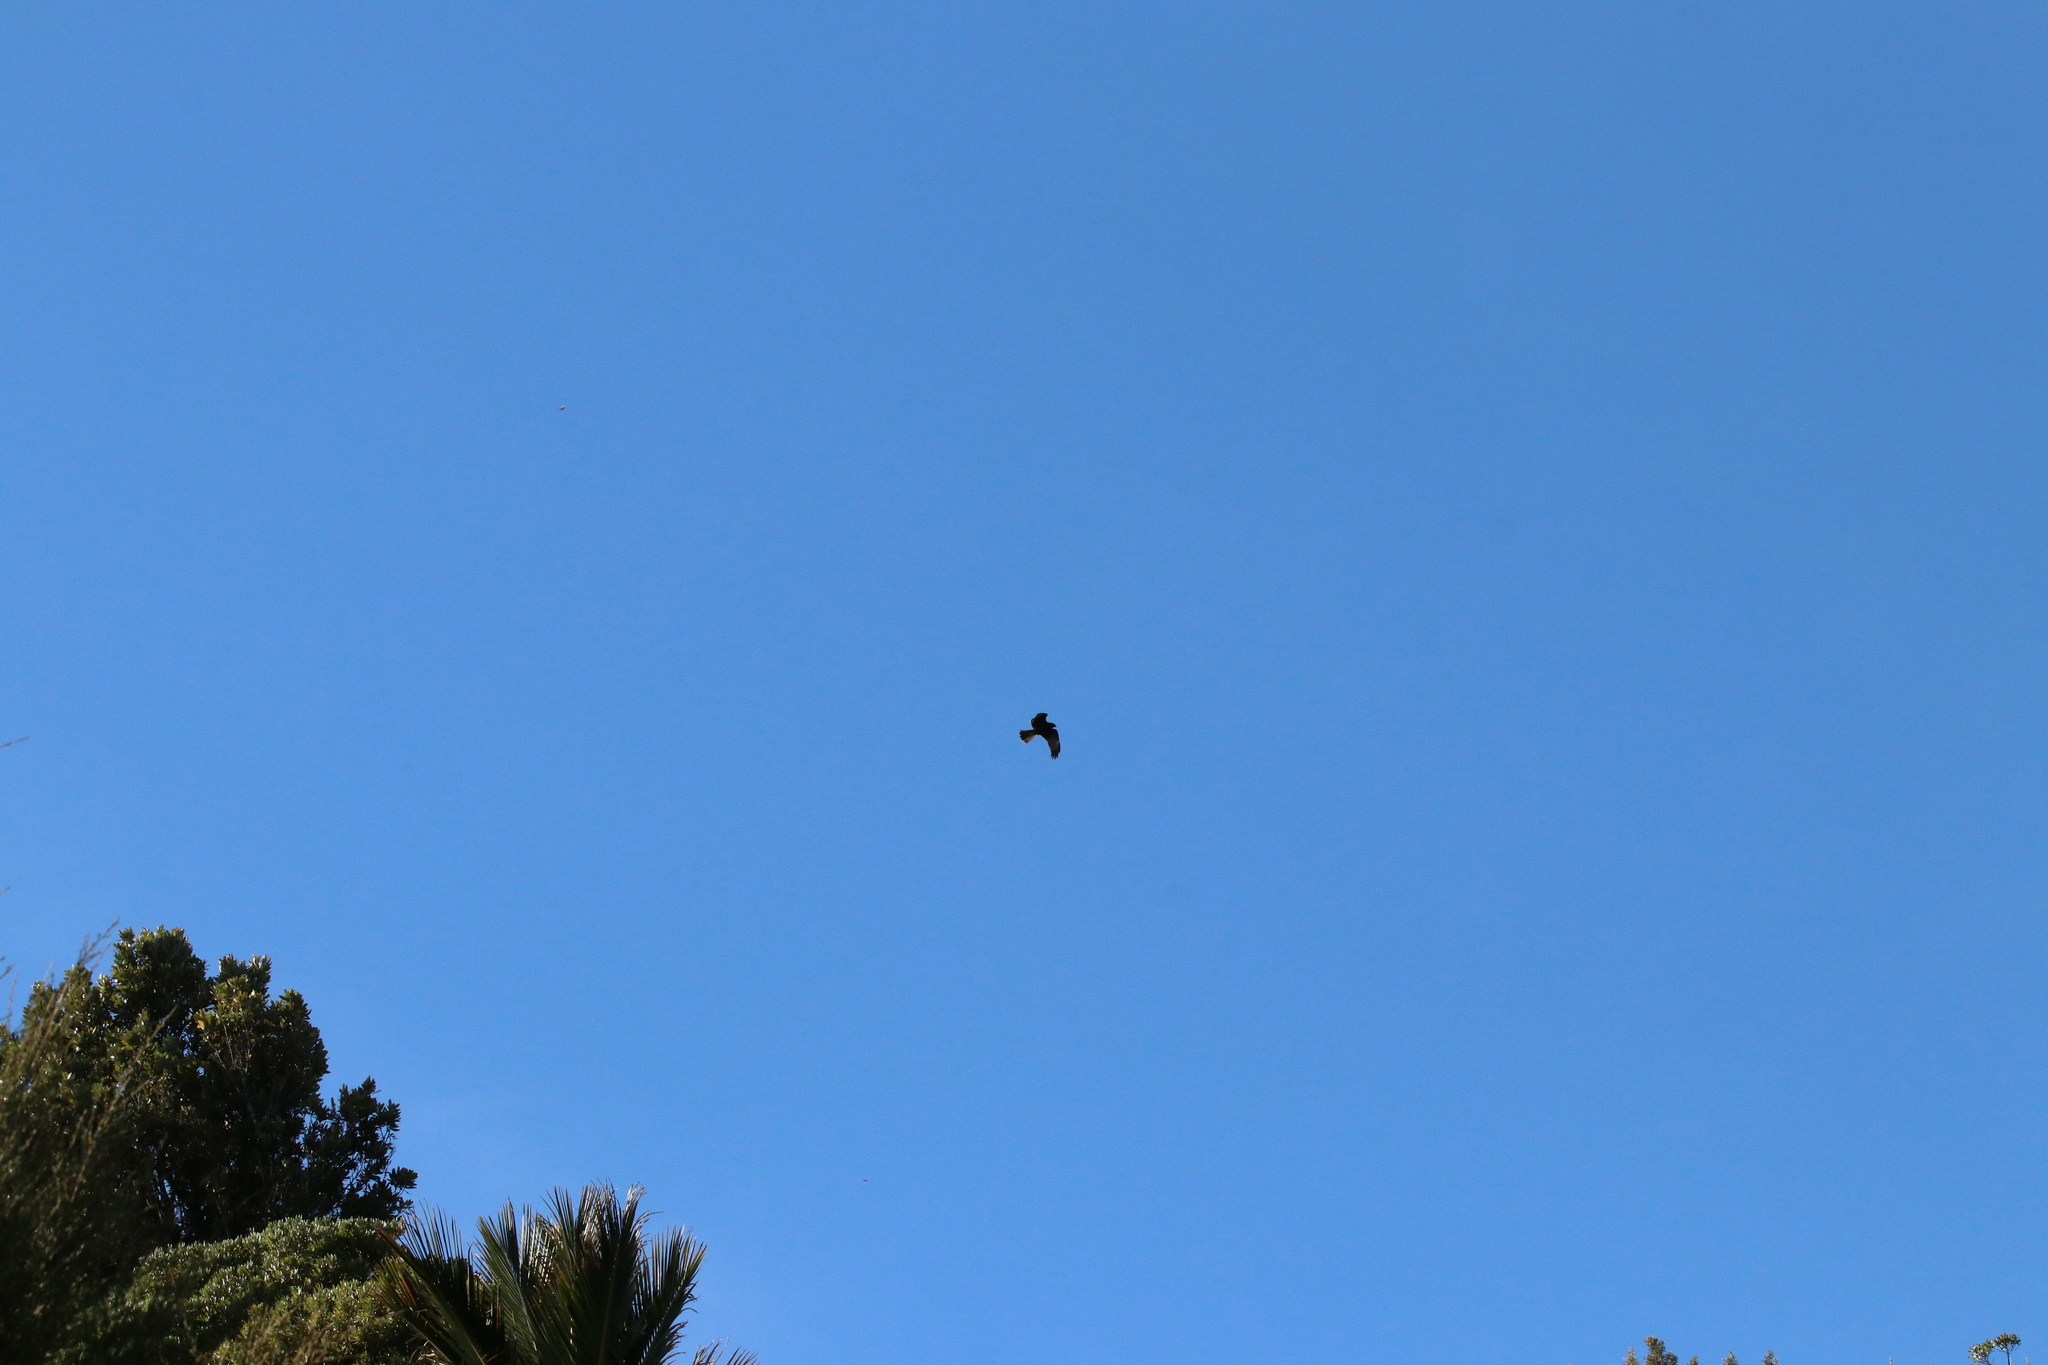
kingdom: Animalia
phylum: Chordata
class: Aves
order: Accipitriformes
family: Accipitridae
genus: Circus
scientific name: Circus approximans
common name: Swamp harrier
